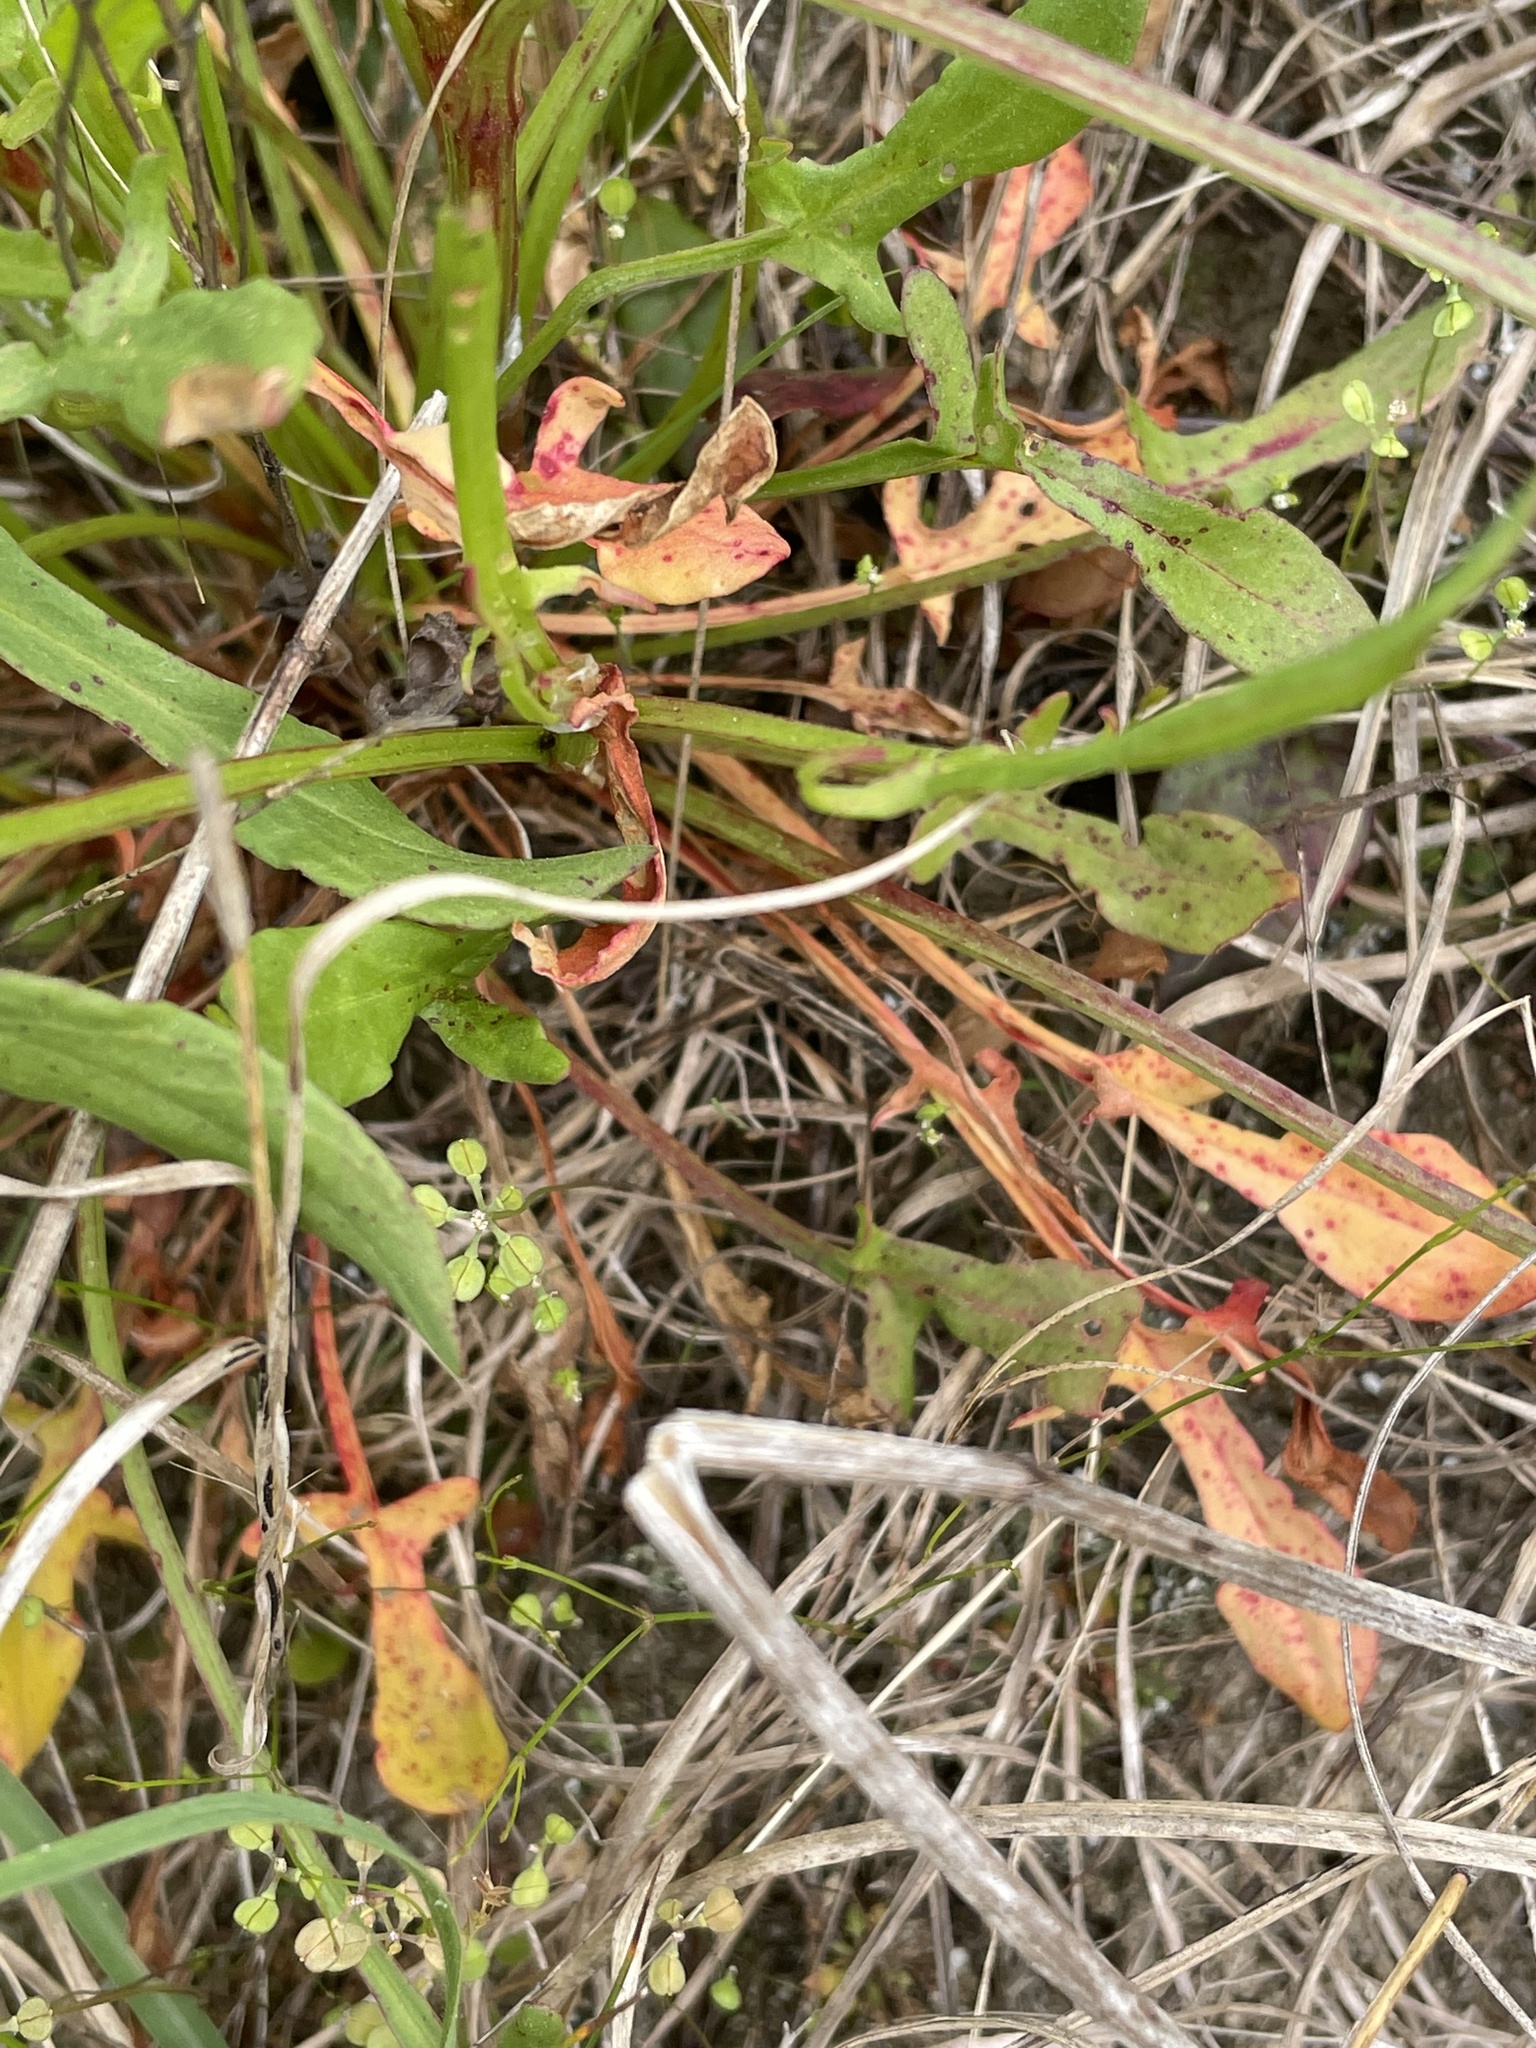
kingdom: Plantae
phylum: Tracheophyta
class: Magnoliopsida
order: Caryophyllales
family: Polygonaceae
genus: Rumex
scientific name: Rumex hastatulus
